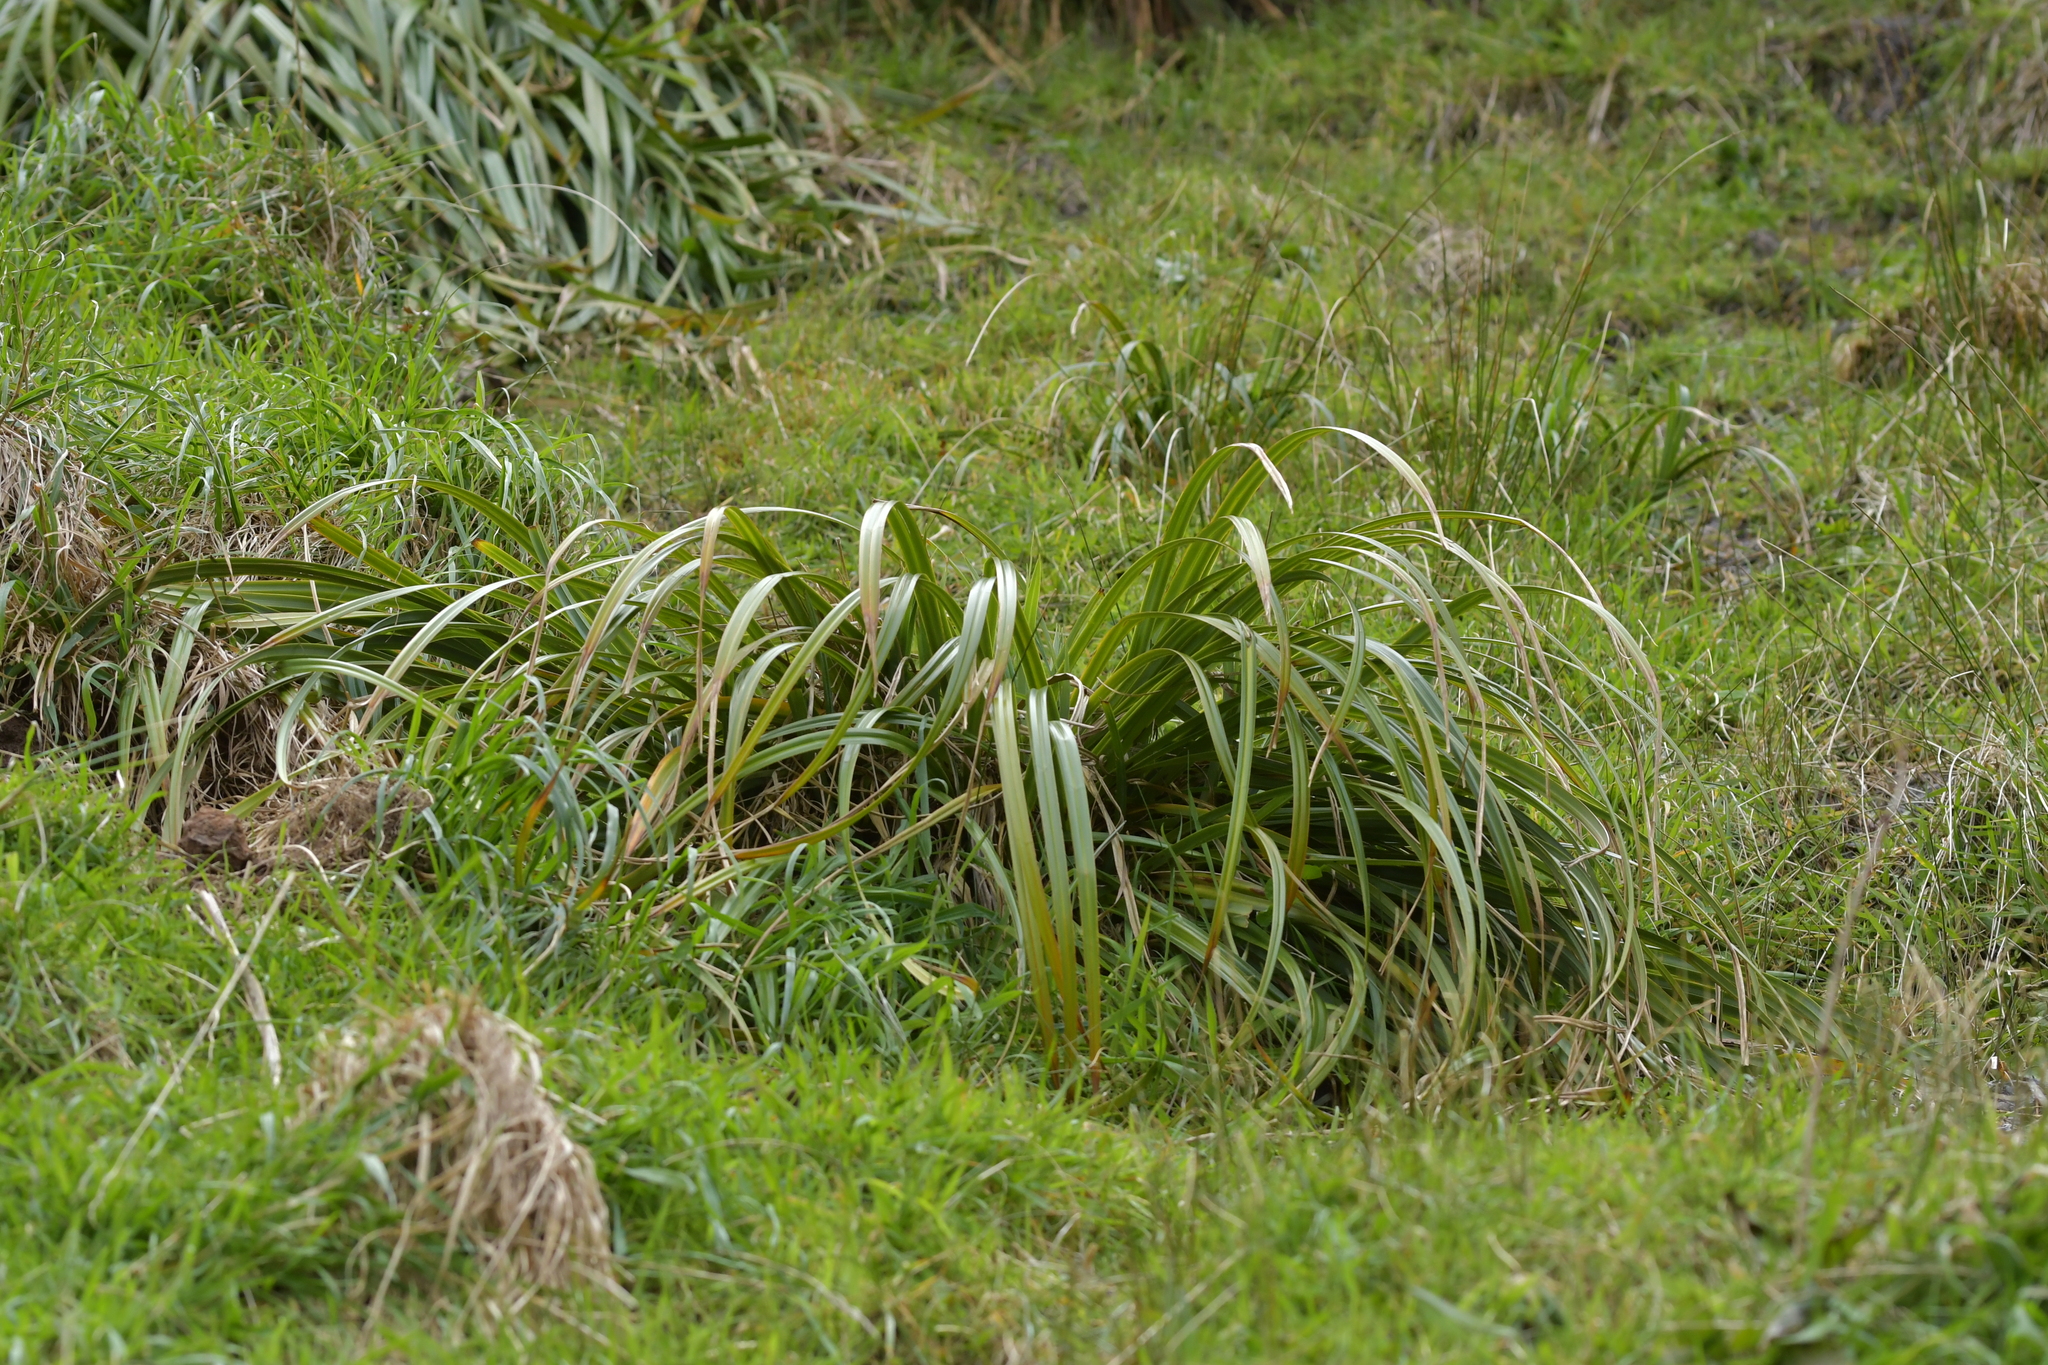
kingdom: Plantae
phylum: Tracheophyta
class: Liliopsida
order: Poales
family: Cyperaceae
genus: Carex
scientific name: Carex trifida
